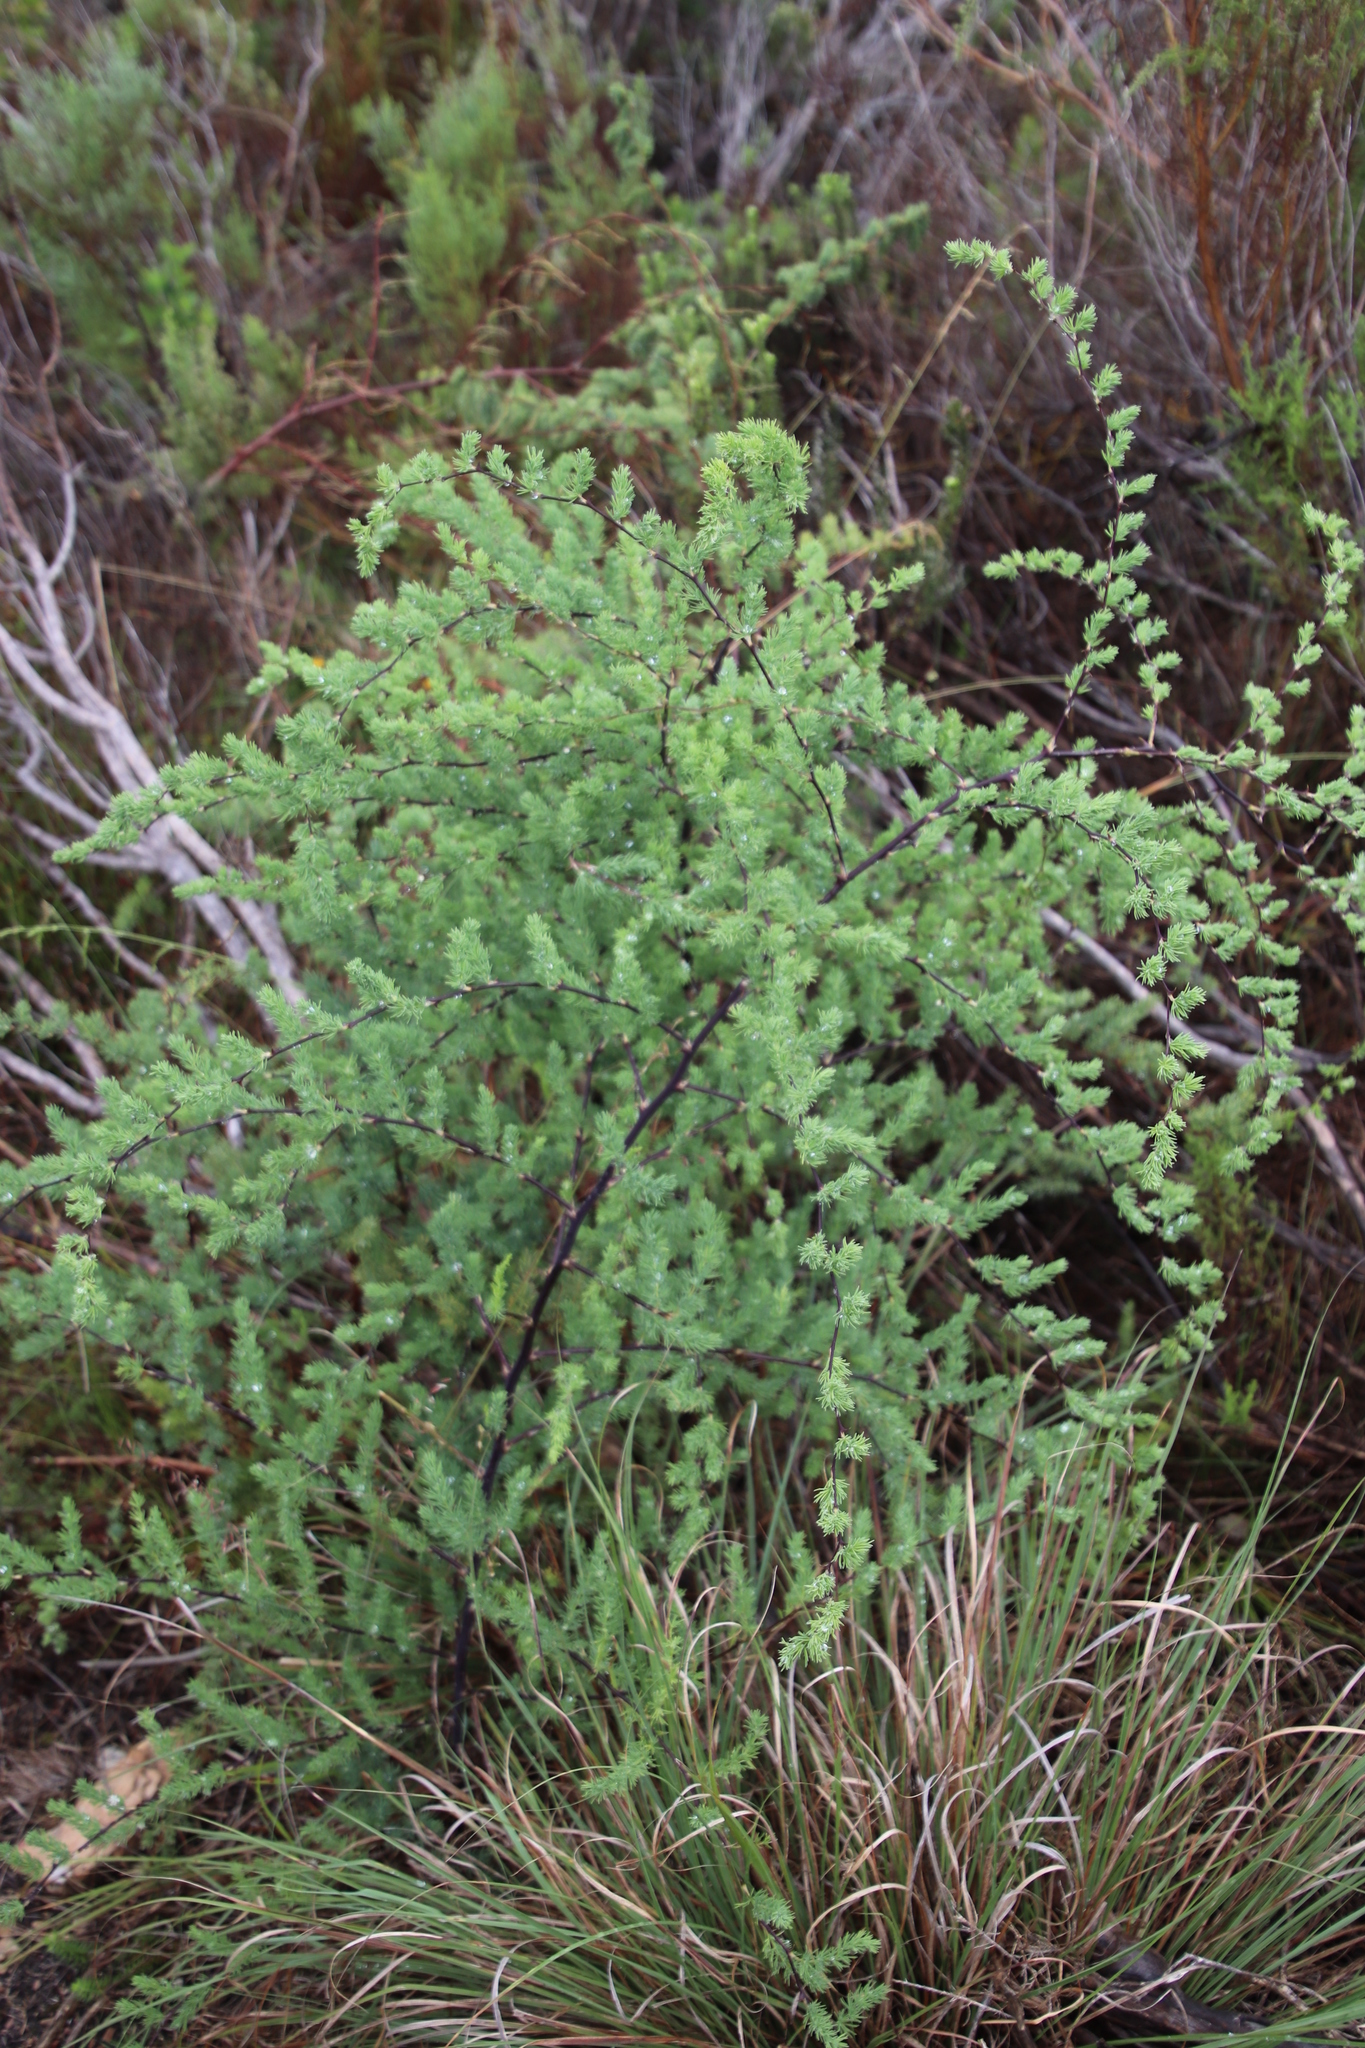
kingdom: Plantae
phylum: Tracheophyta
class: Liliopsida
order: Asparagales
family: Asparagaceae
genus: Asparagus
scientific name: Asparagus rubicundus
